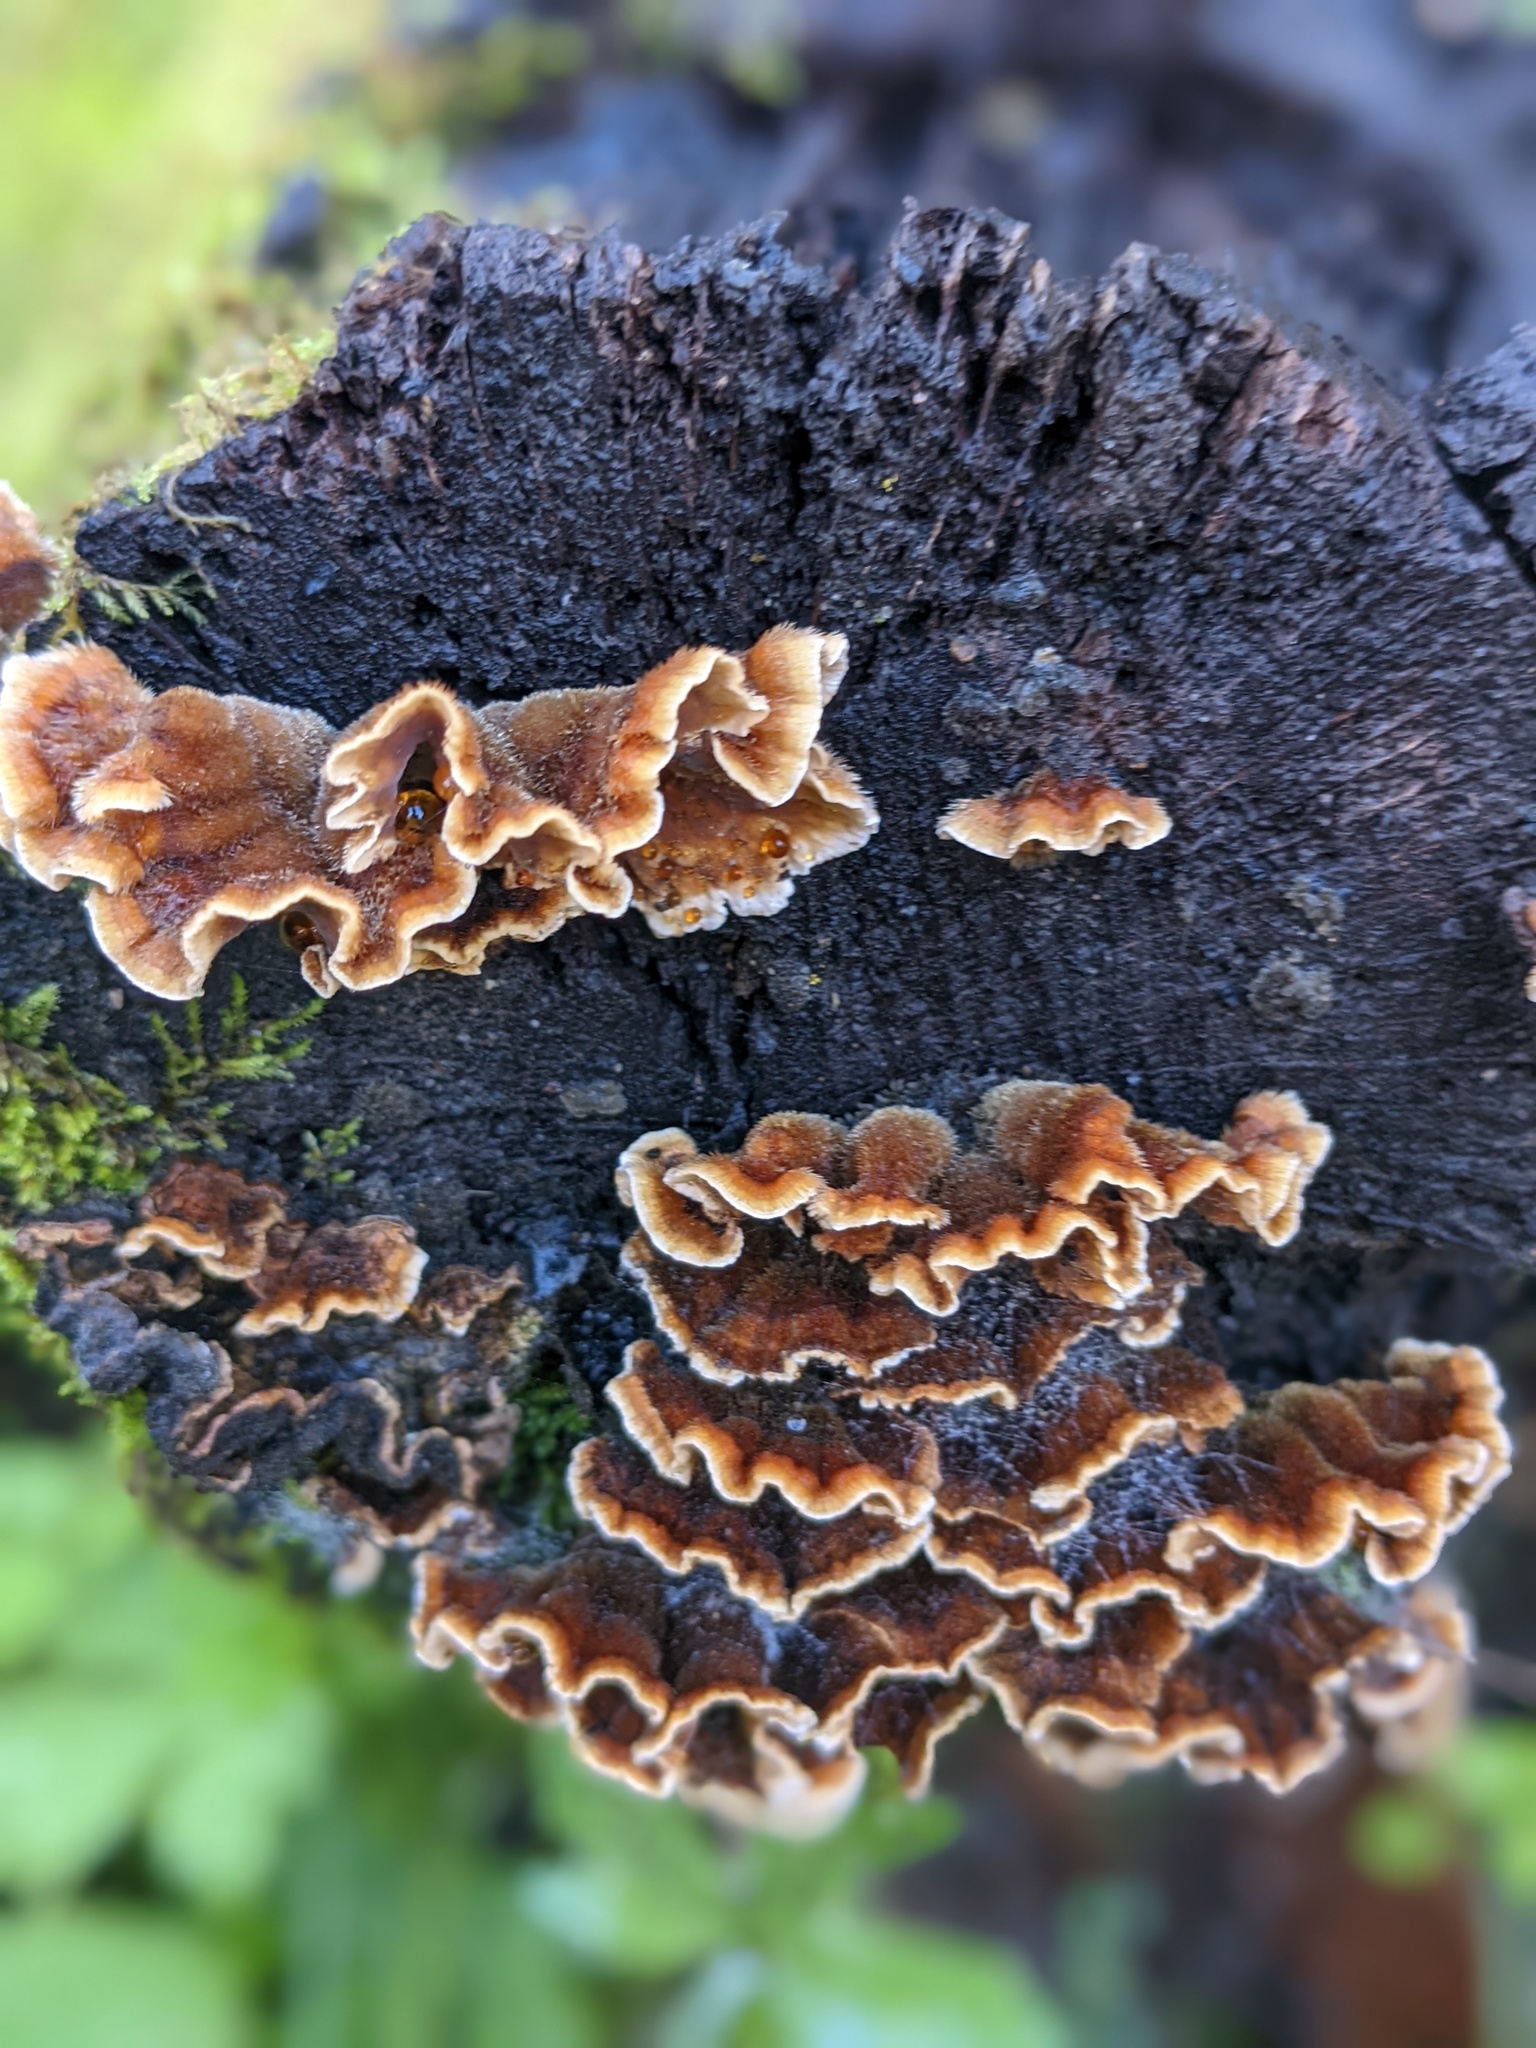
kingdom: Fungi
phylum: Basidiomycota
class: Agaricomycetes
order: Russulales
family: Stereaceae
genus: Stereum
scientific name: Stereum hirsutum
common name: Hairy curtain crust
